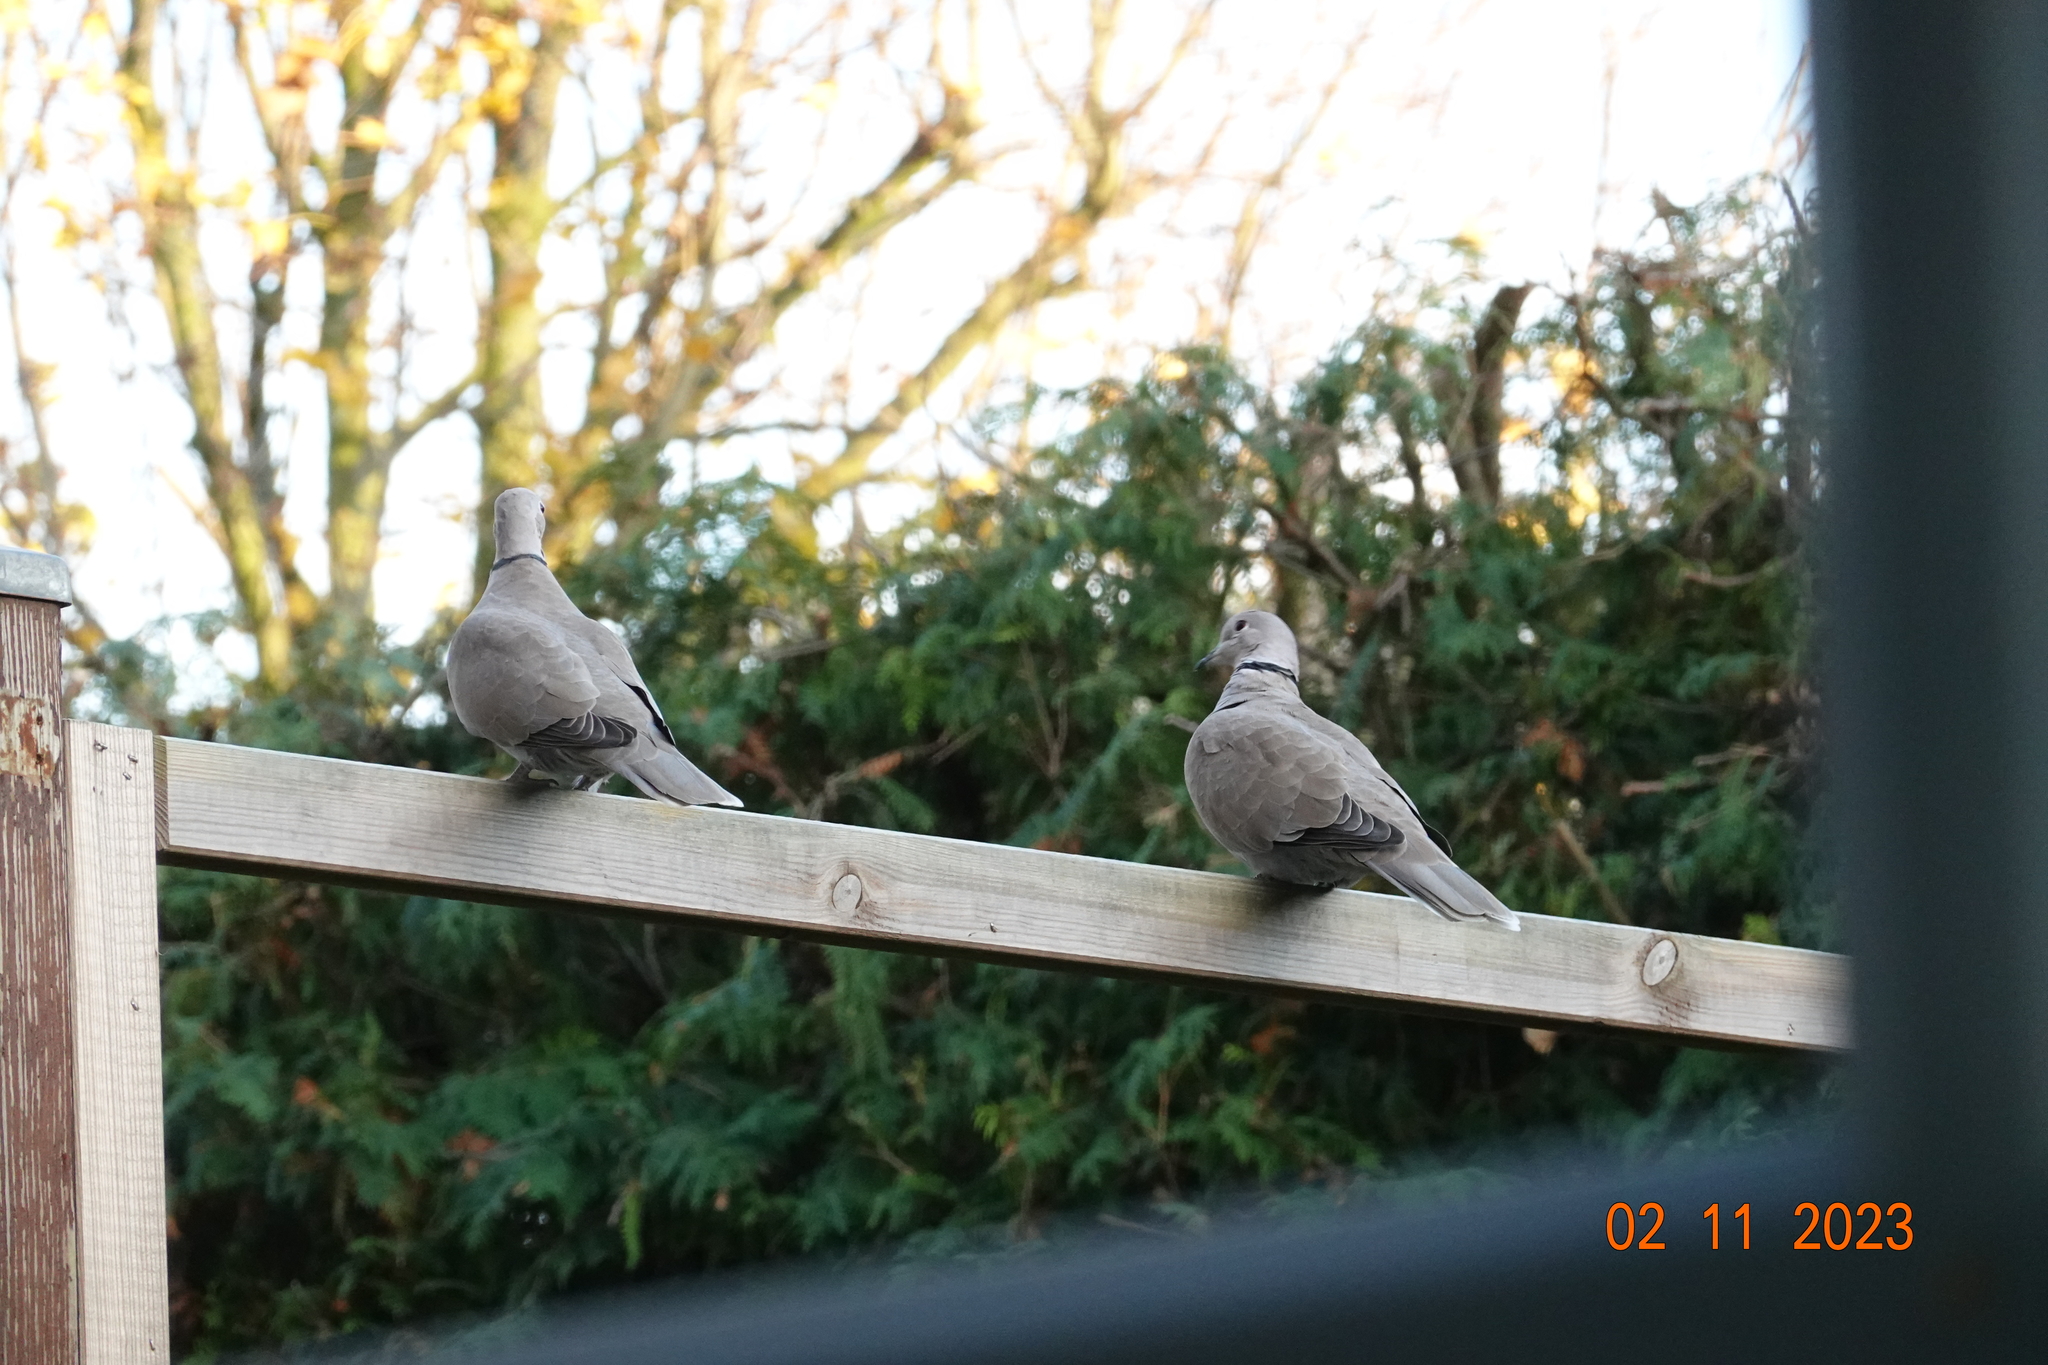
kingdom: Animalia
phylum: Chordata
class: Aves
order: Columbiformes
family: Columbidae
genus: Streptopelia
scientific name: Streptopelia decaocto
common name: Eurasian collared dove
